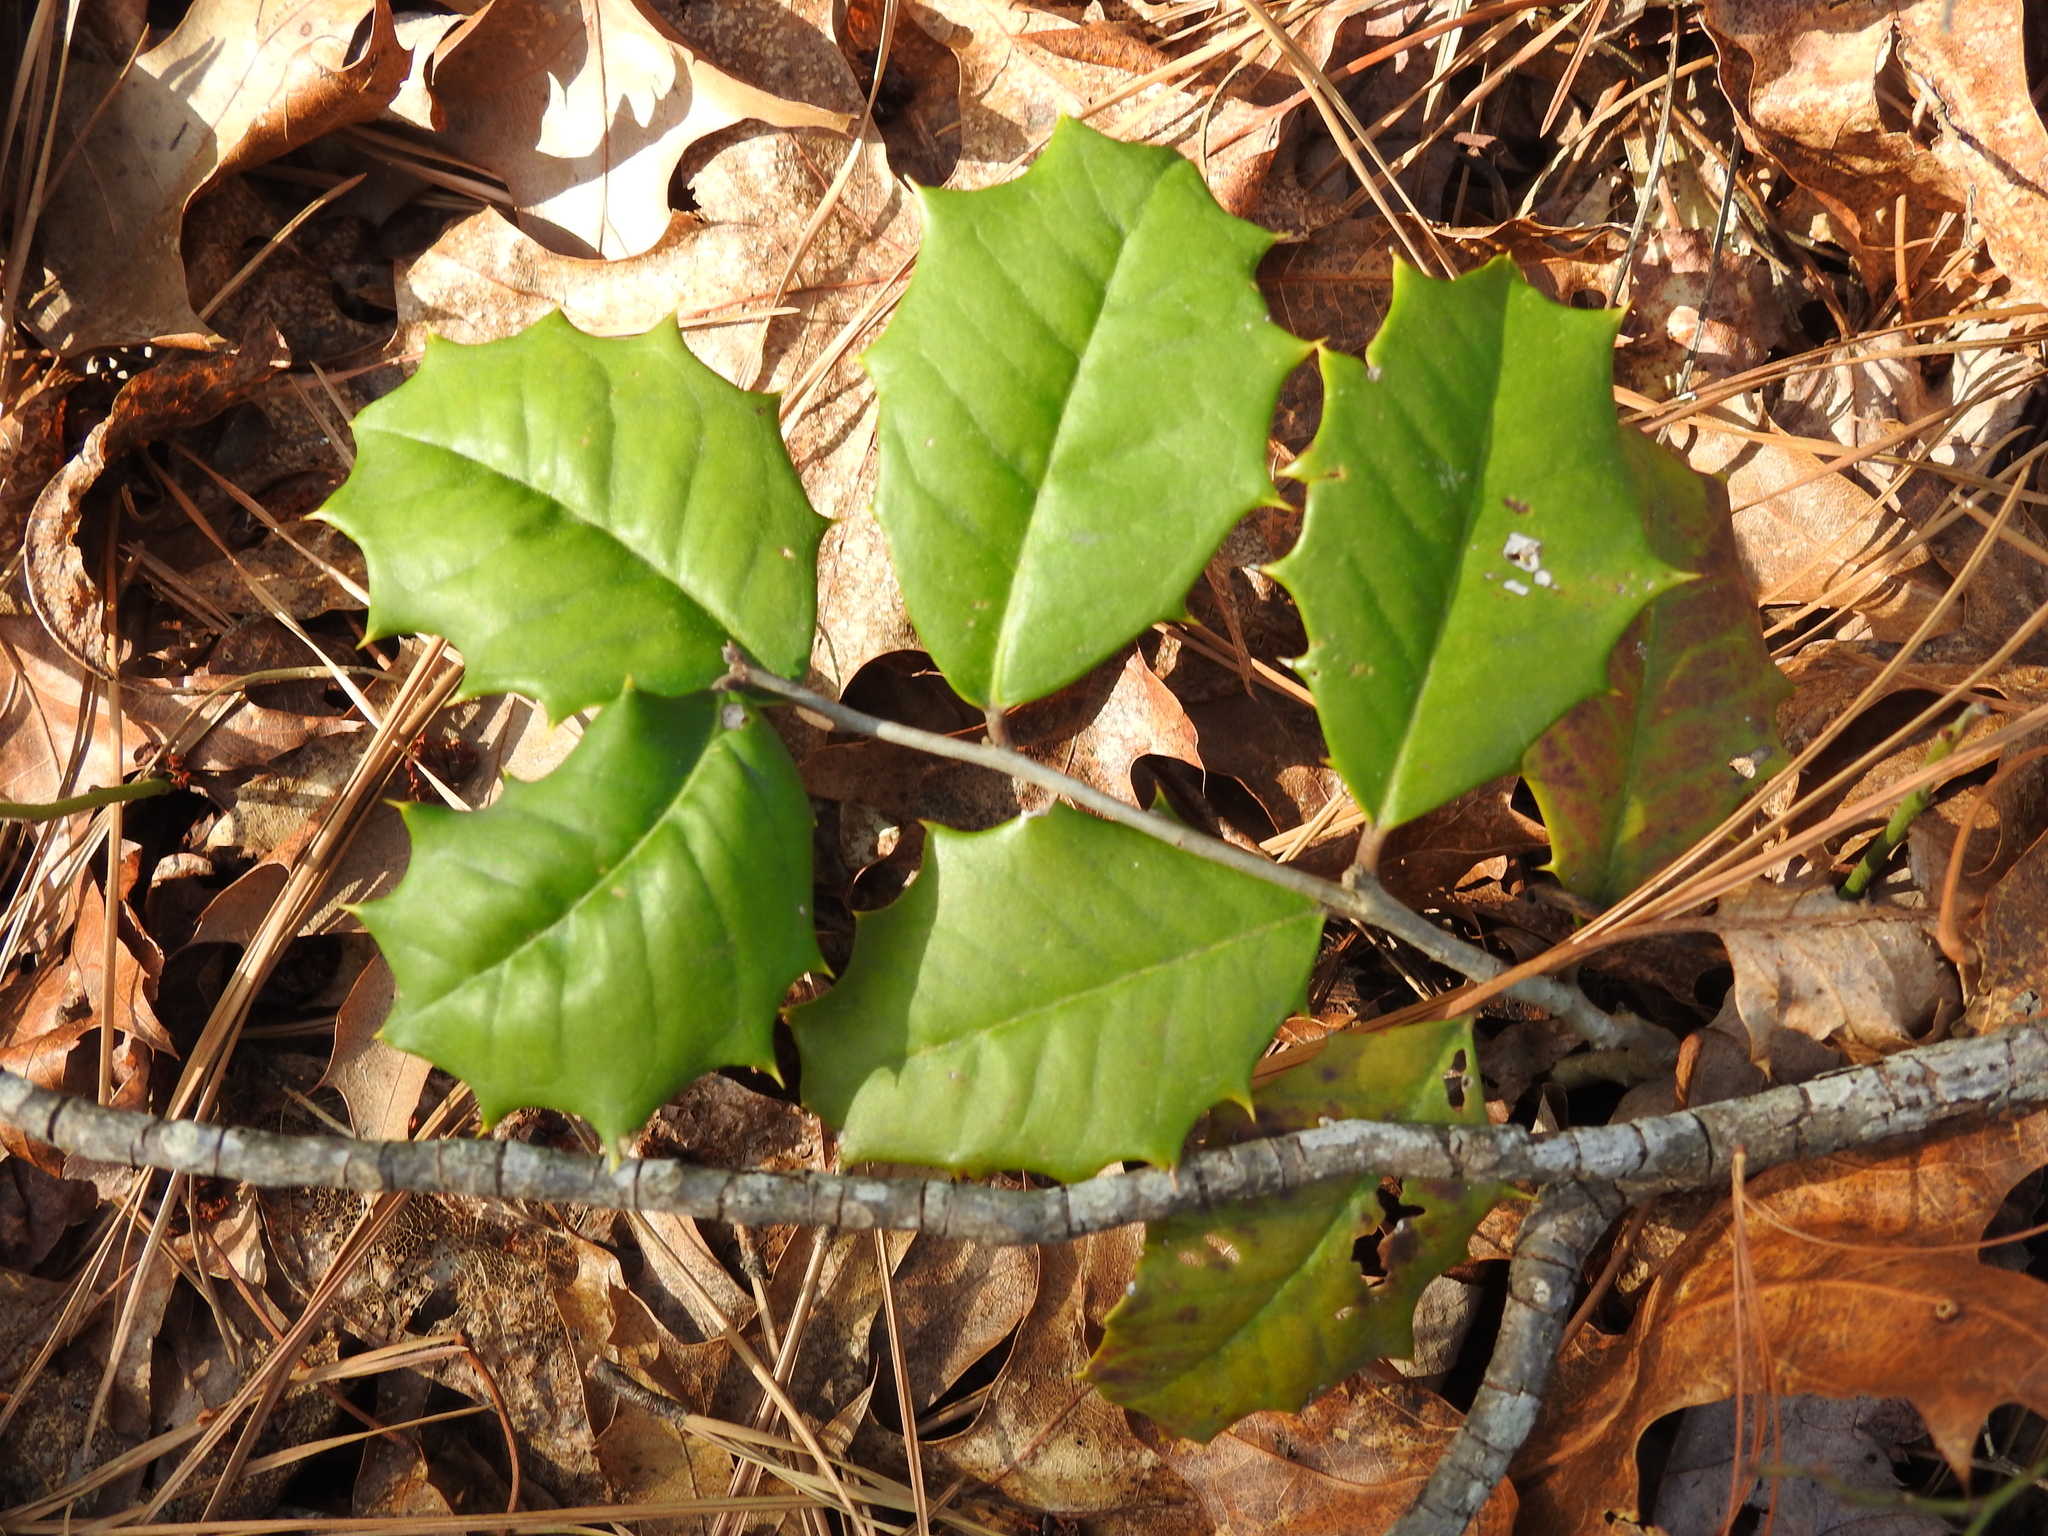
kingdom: Plantae
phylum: Tracheophyta
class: Magnoliopsida
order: Aquifoliales
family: Aquifoliaceae
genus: Ilex
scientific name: Ilex opaca
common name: American holly
